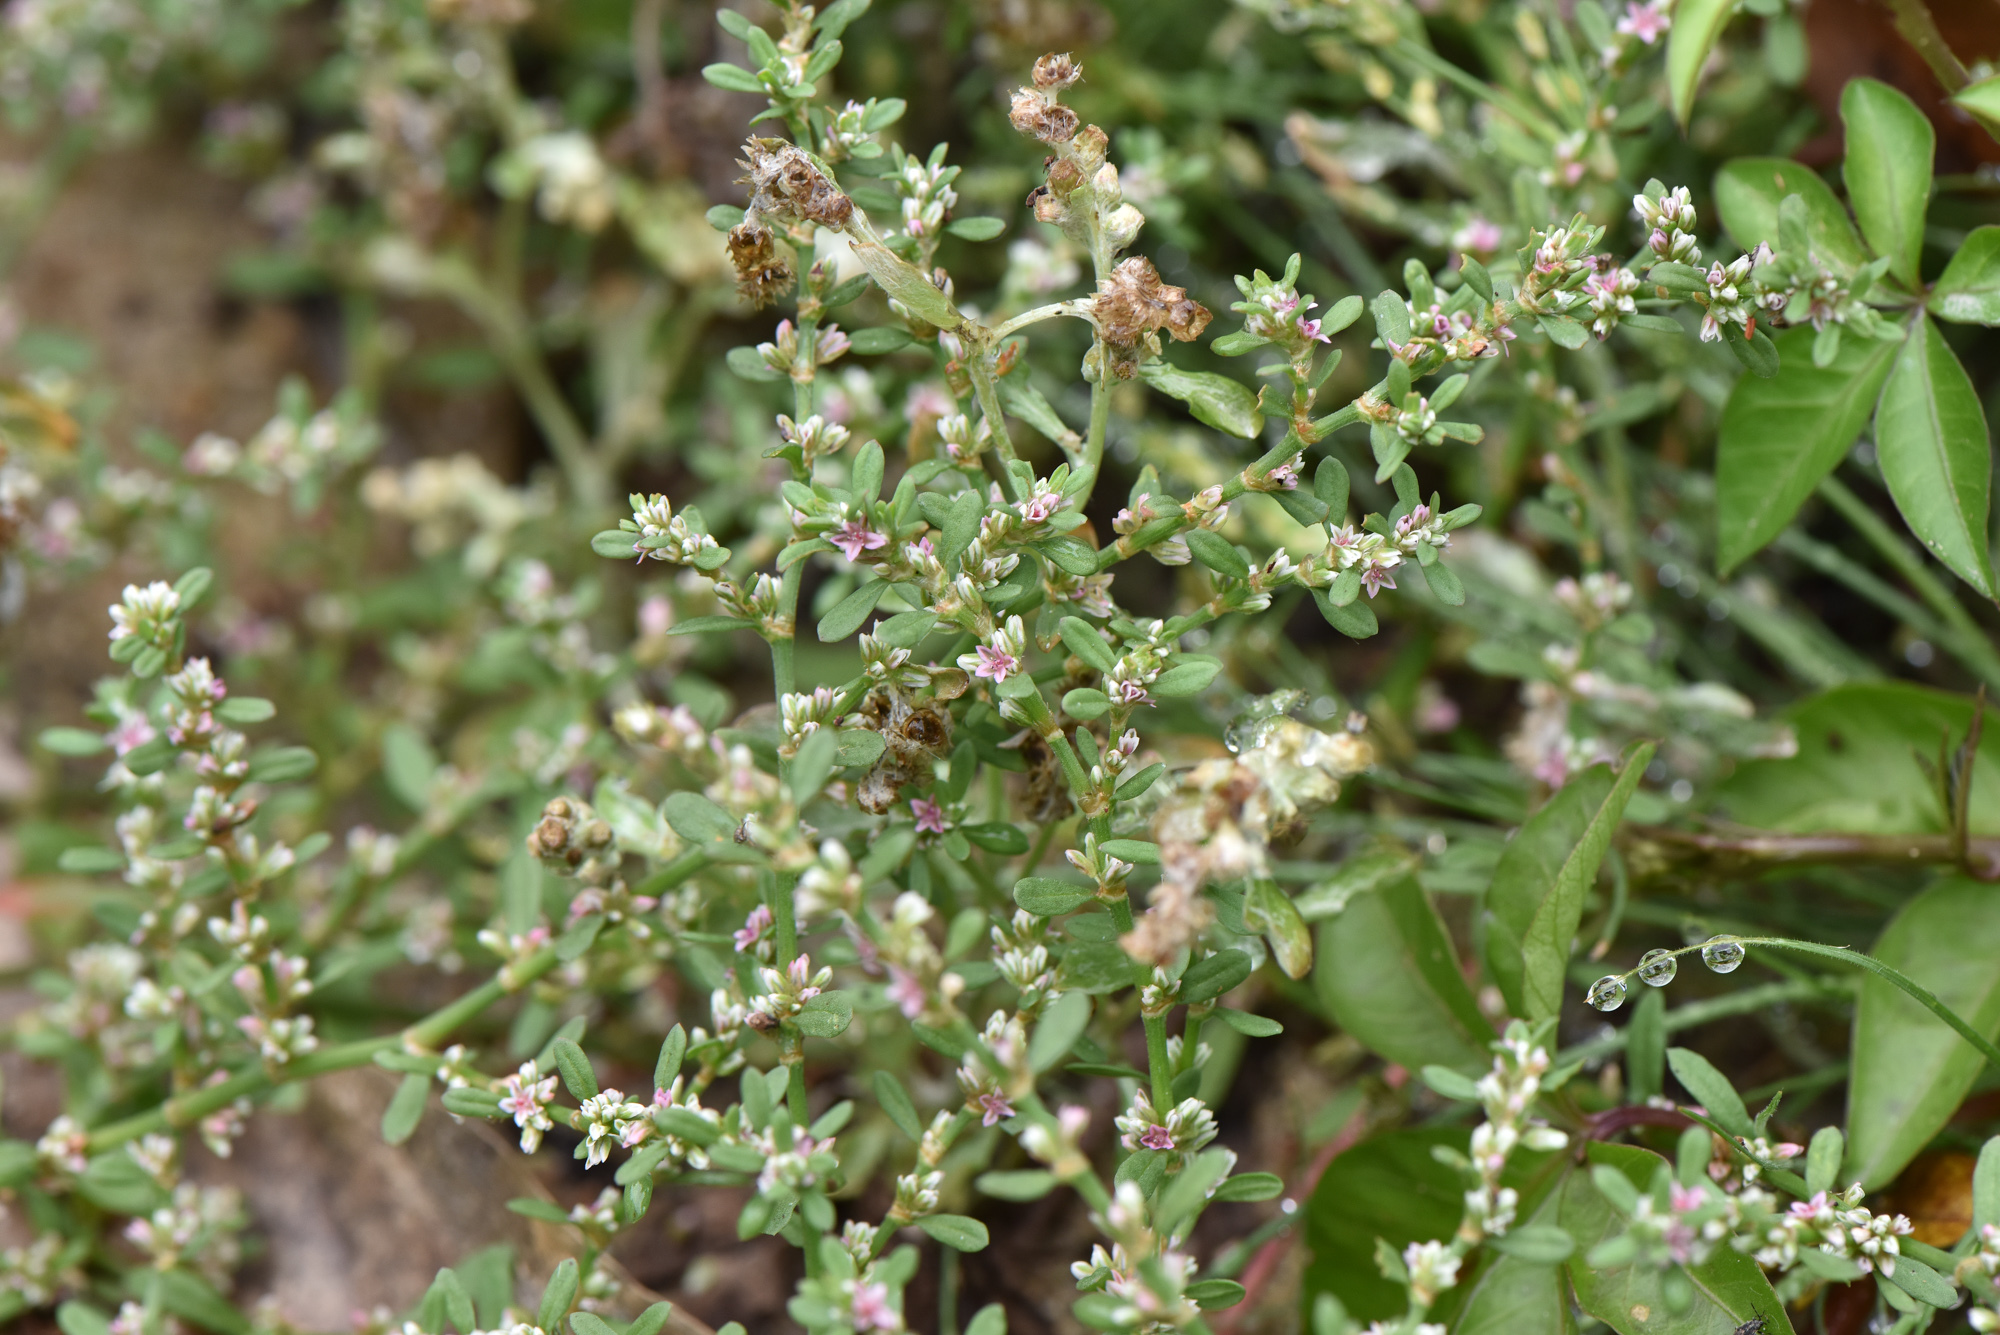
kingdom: Plantae
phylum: Tracheophyta
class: Magnoliopsida
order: Caryophyllales
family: Polygonaceae
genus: Polygonum
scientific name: Polygonum plebeium
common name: Common knotweed
